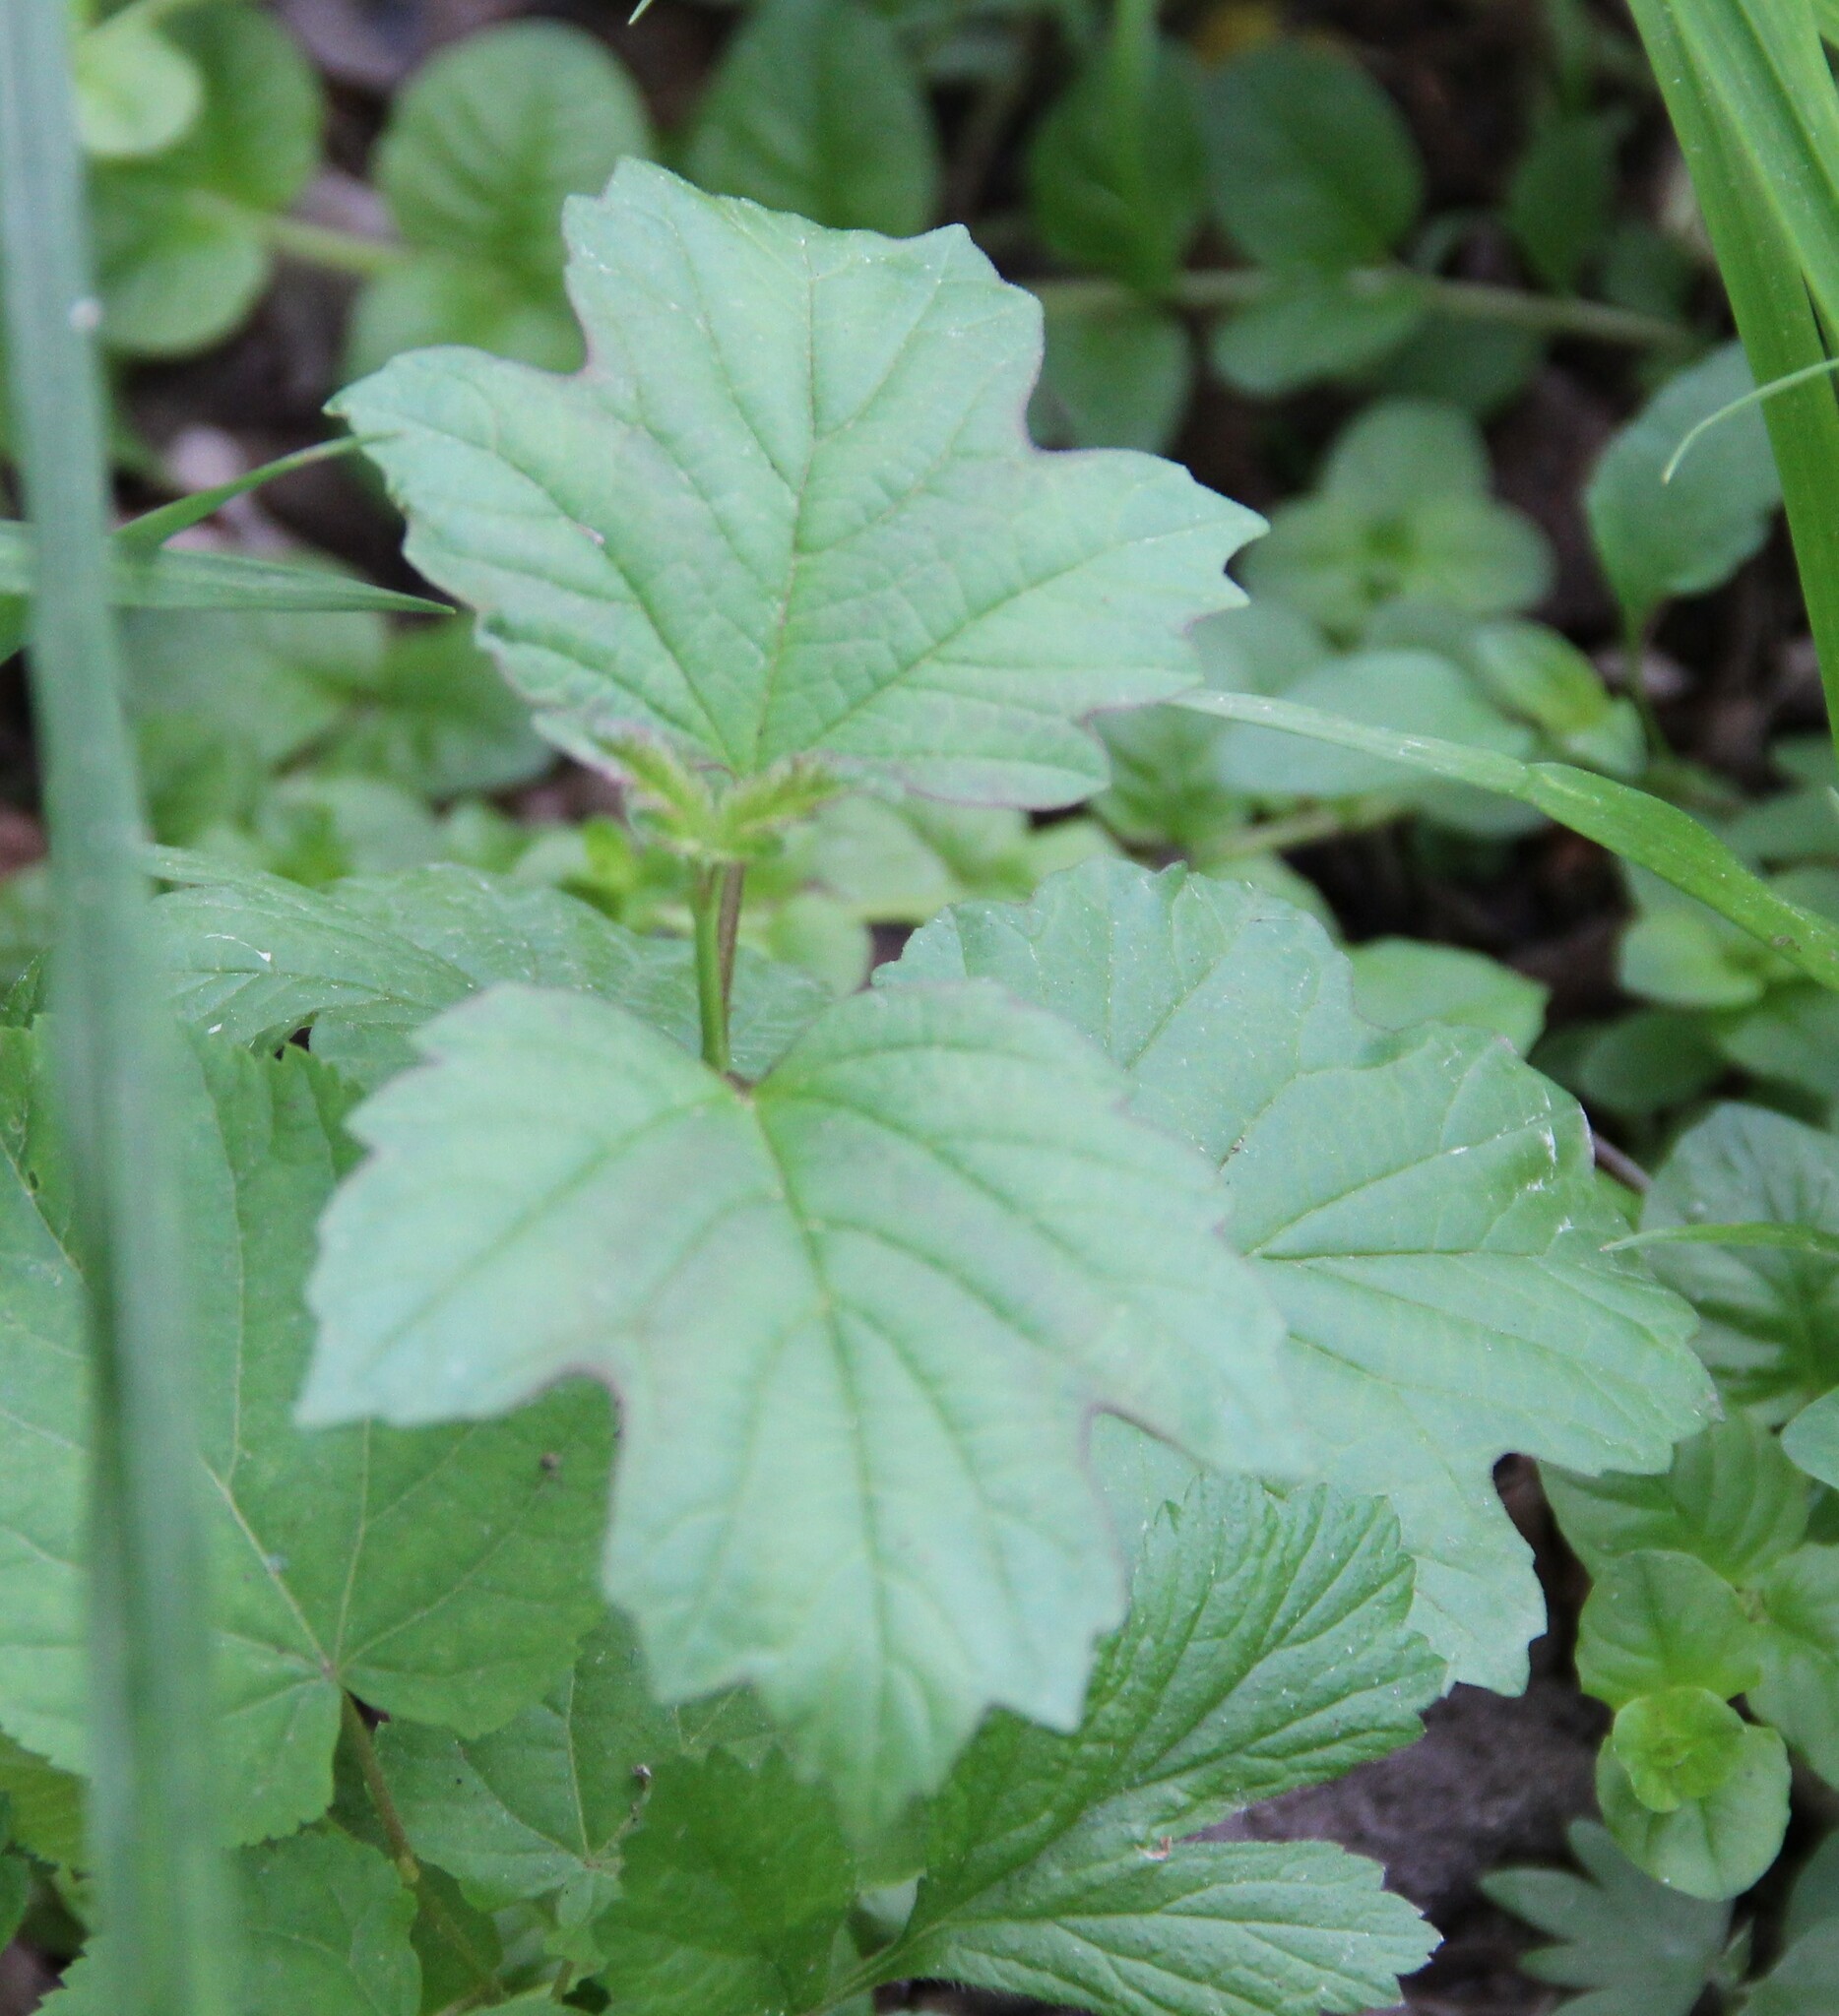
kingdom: Plantae
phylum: Tracheophyta
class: Magnoliopsida
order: Dipsacales
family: Viburnaceae
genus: Viburnum
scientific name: Viburnum opulus
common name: Guelder-rose
